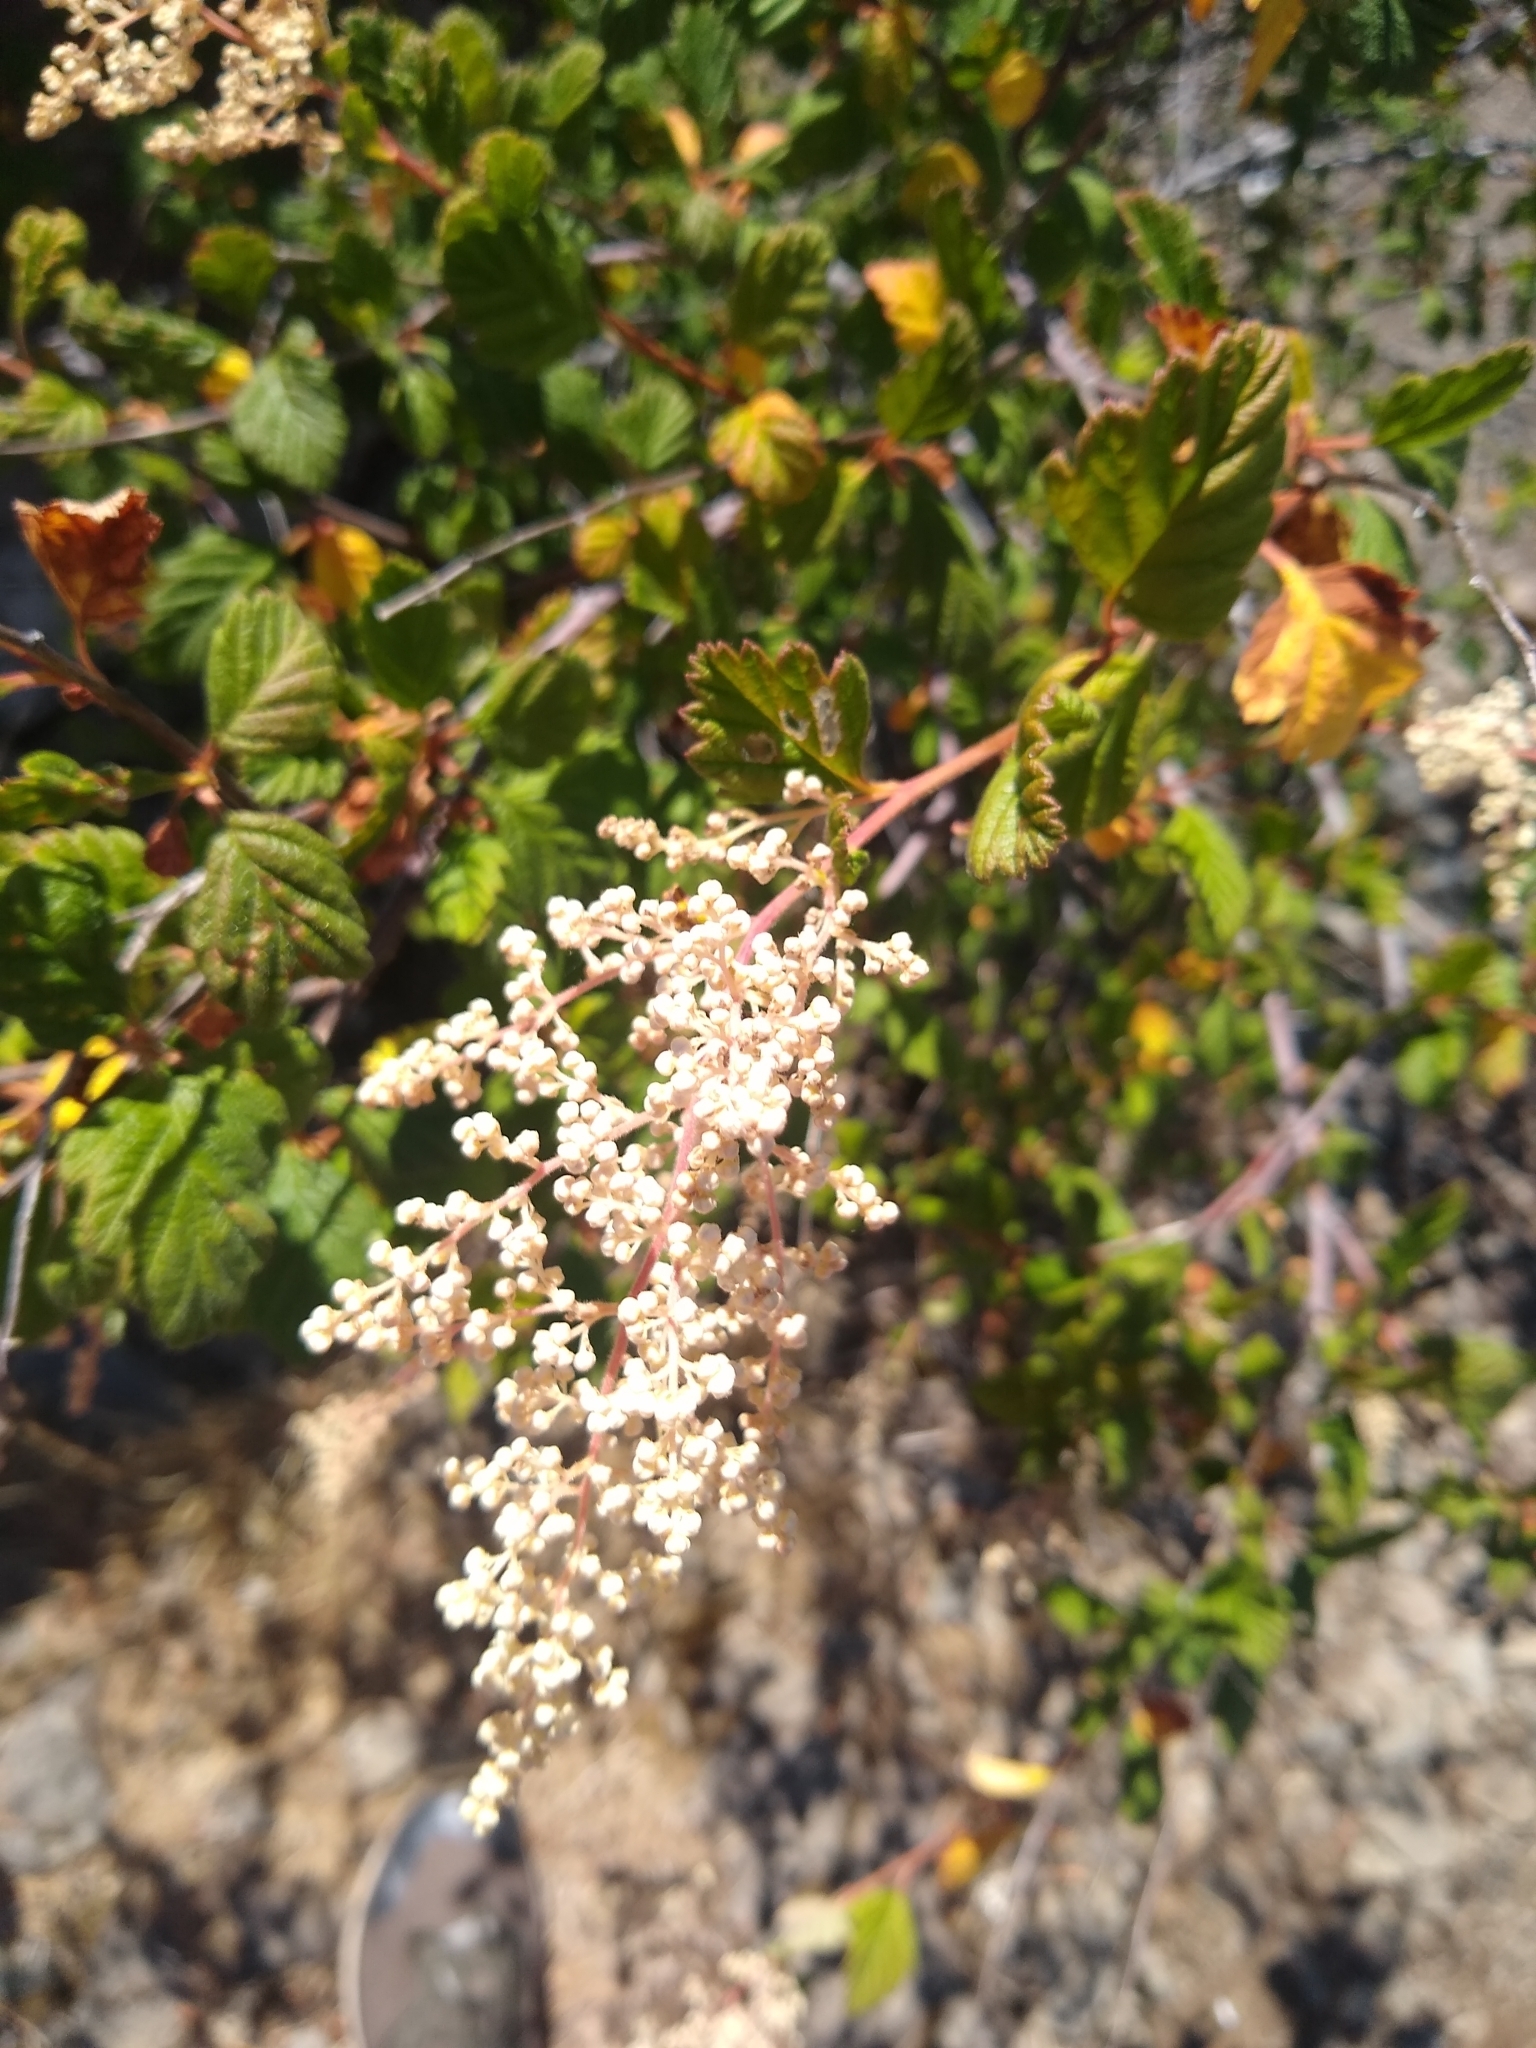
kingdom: Plantae
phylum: Tracheophyta
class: Magnoliopsida
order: Rosales
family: Rosaceae
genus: Holodiscus
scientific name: Holodiscus discolor
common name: Oceanspray
